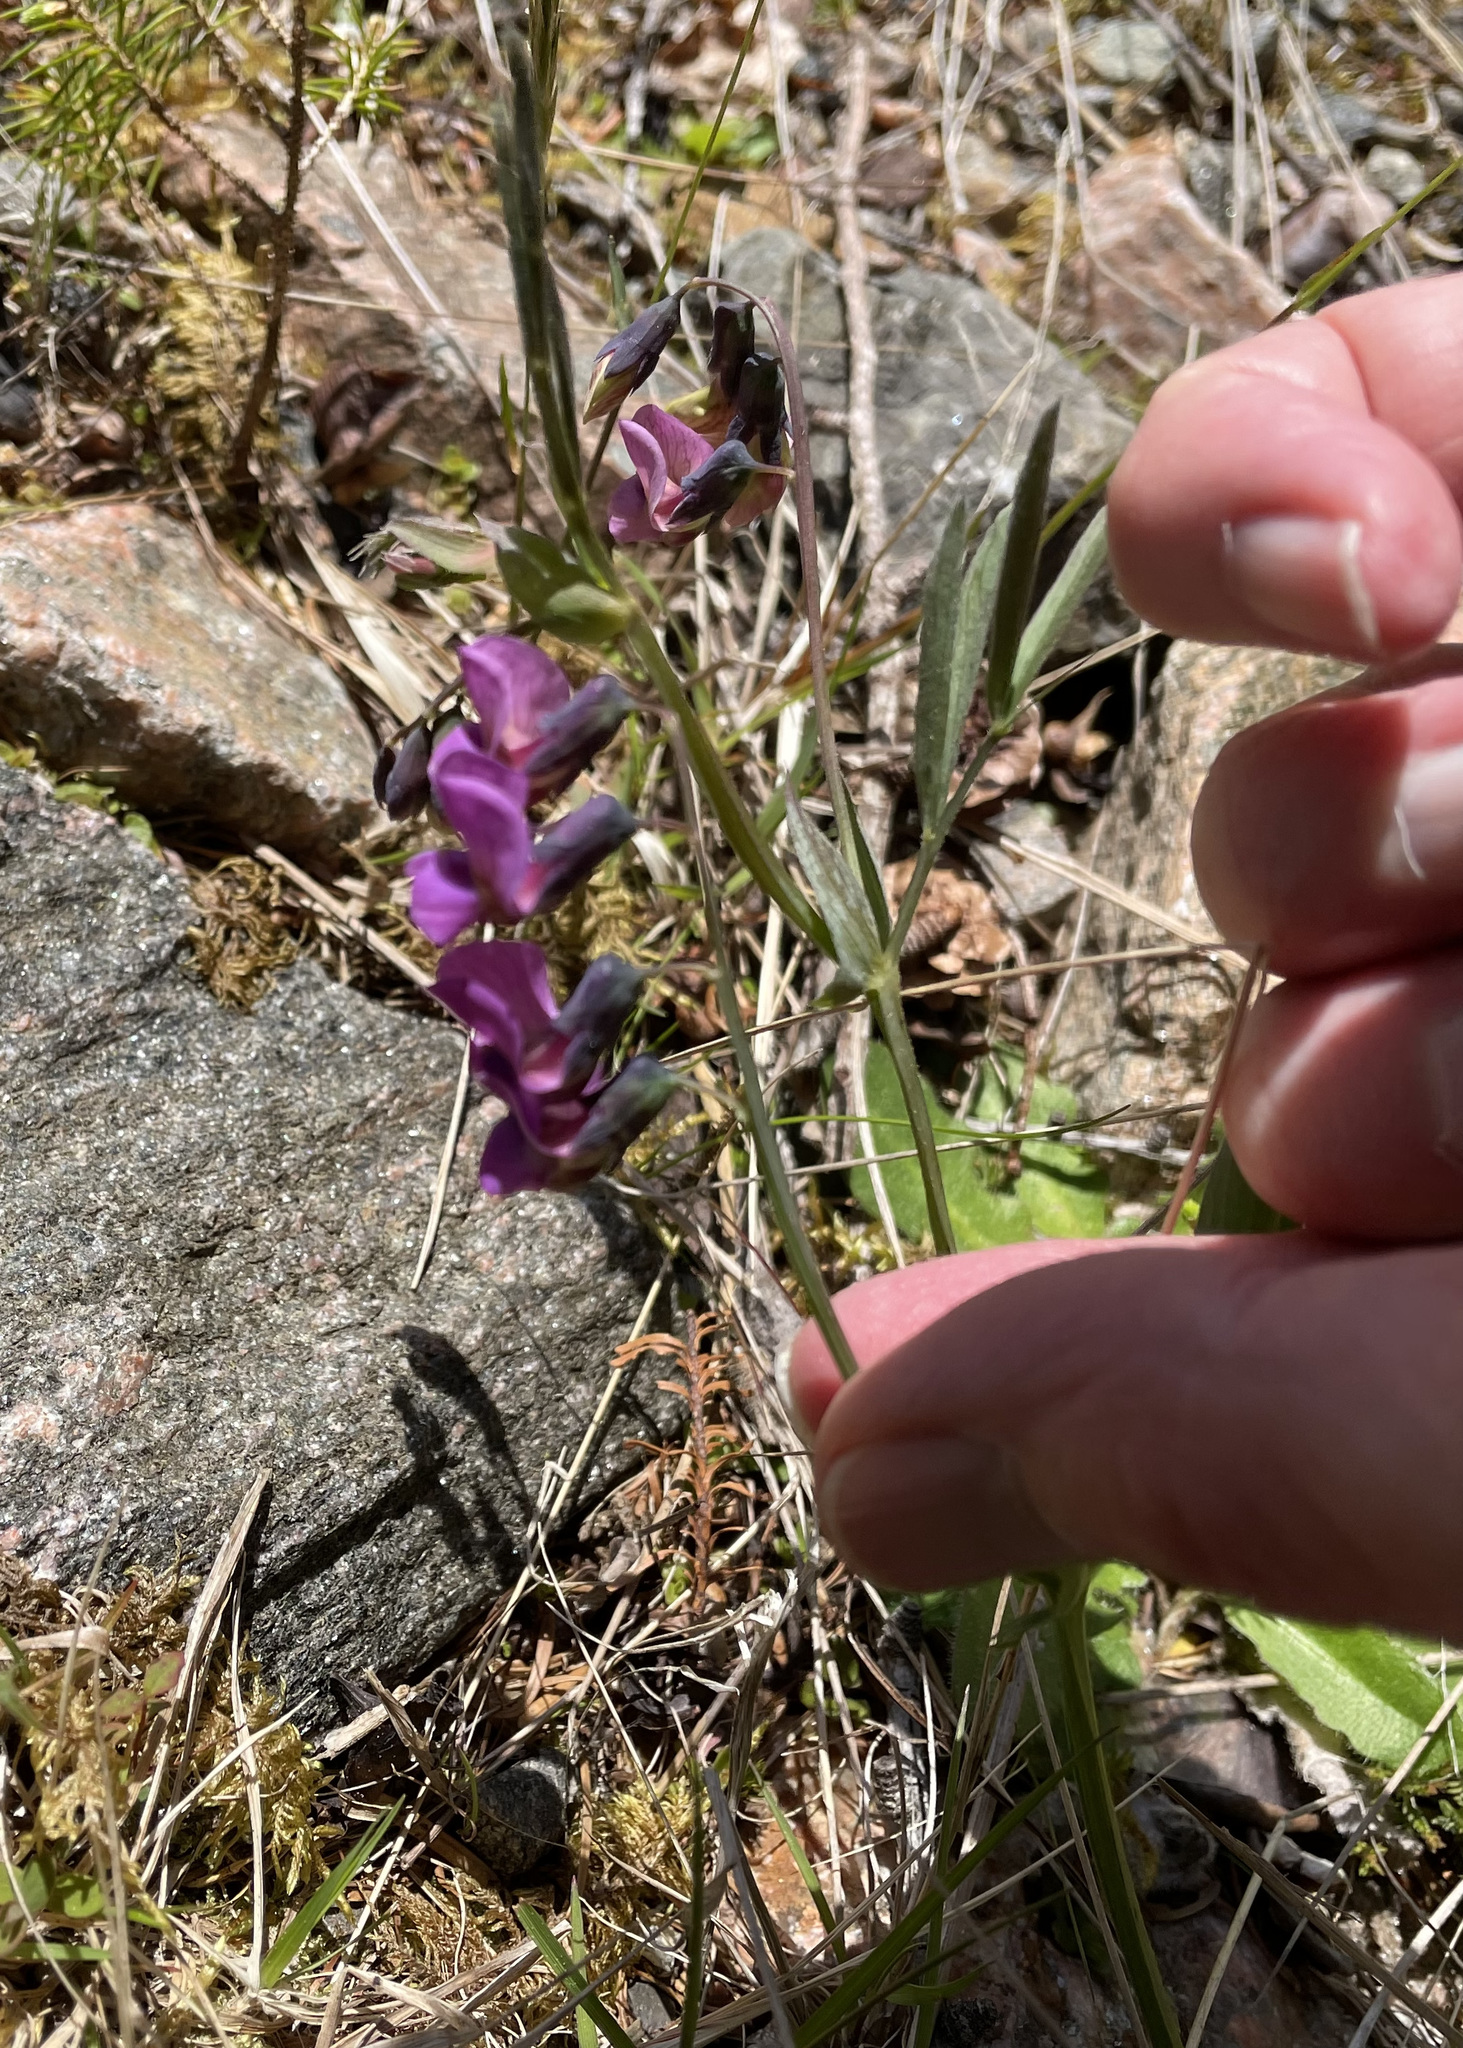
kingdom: Plantae
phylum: Tracheophyta
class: Magnoliopsida
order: Fabales
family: Fabaceae
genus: Lathyrus
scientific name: Lathyrus linifolius
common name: Bitter-vetch
